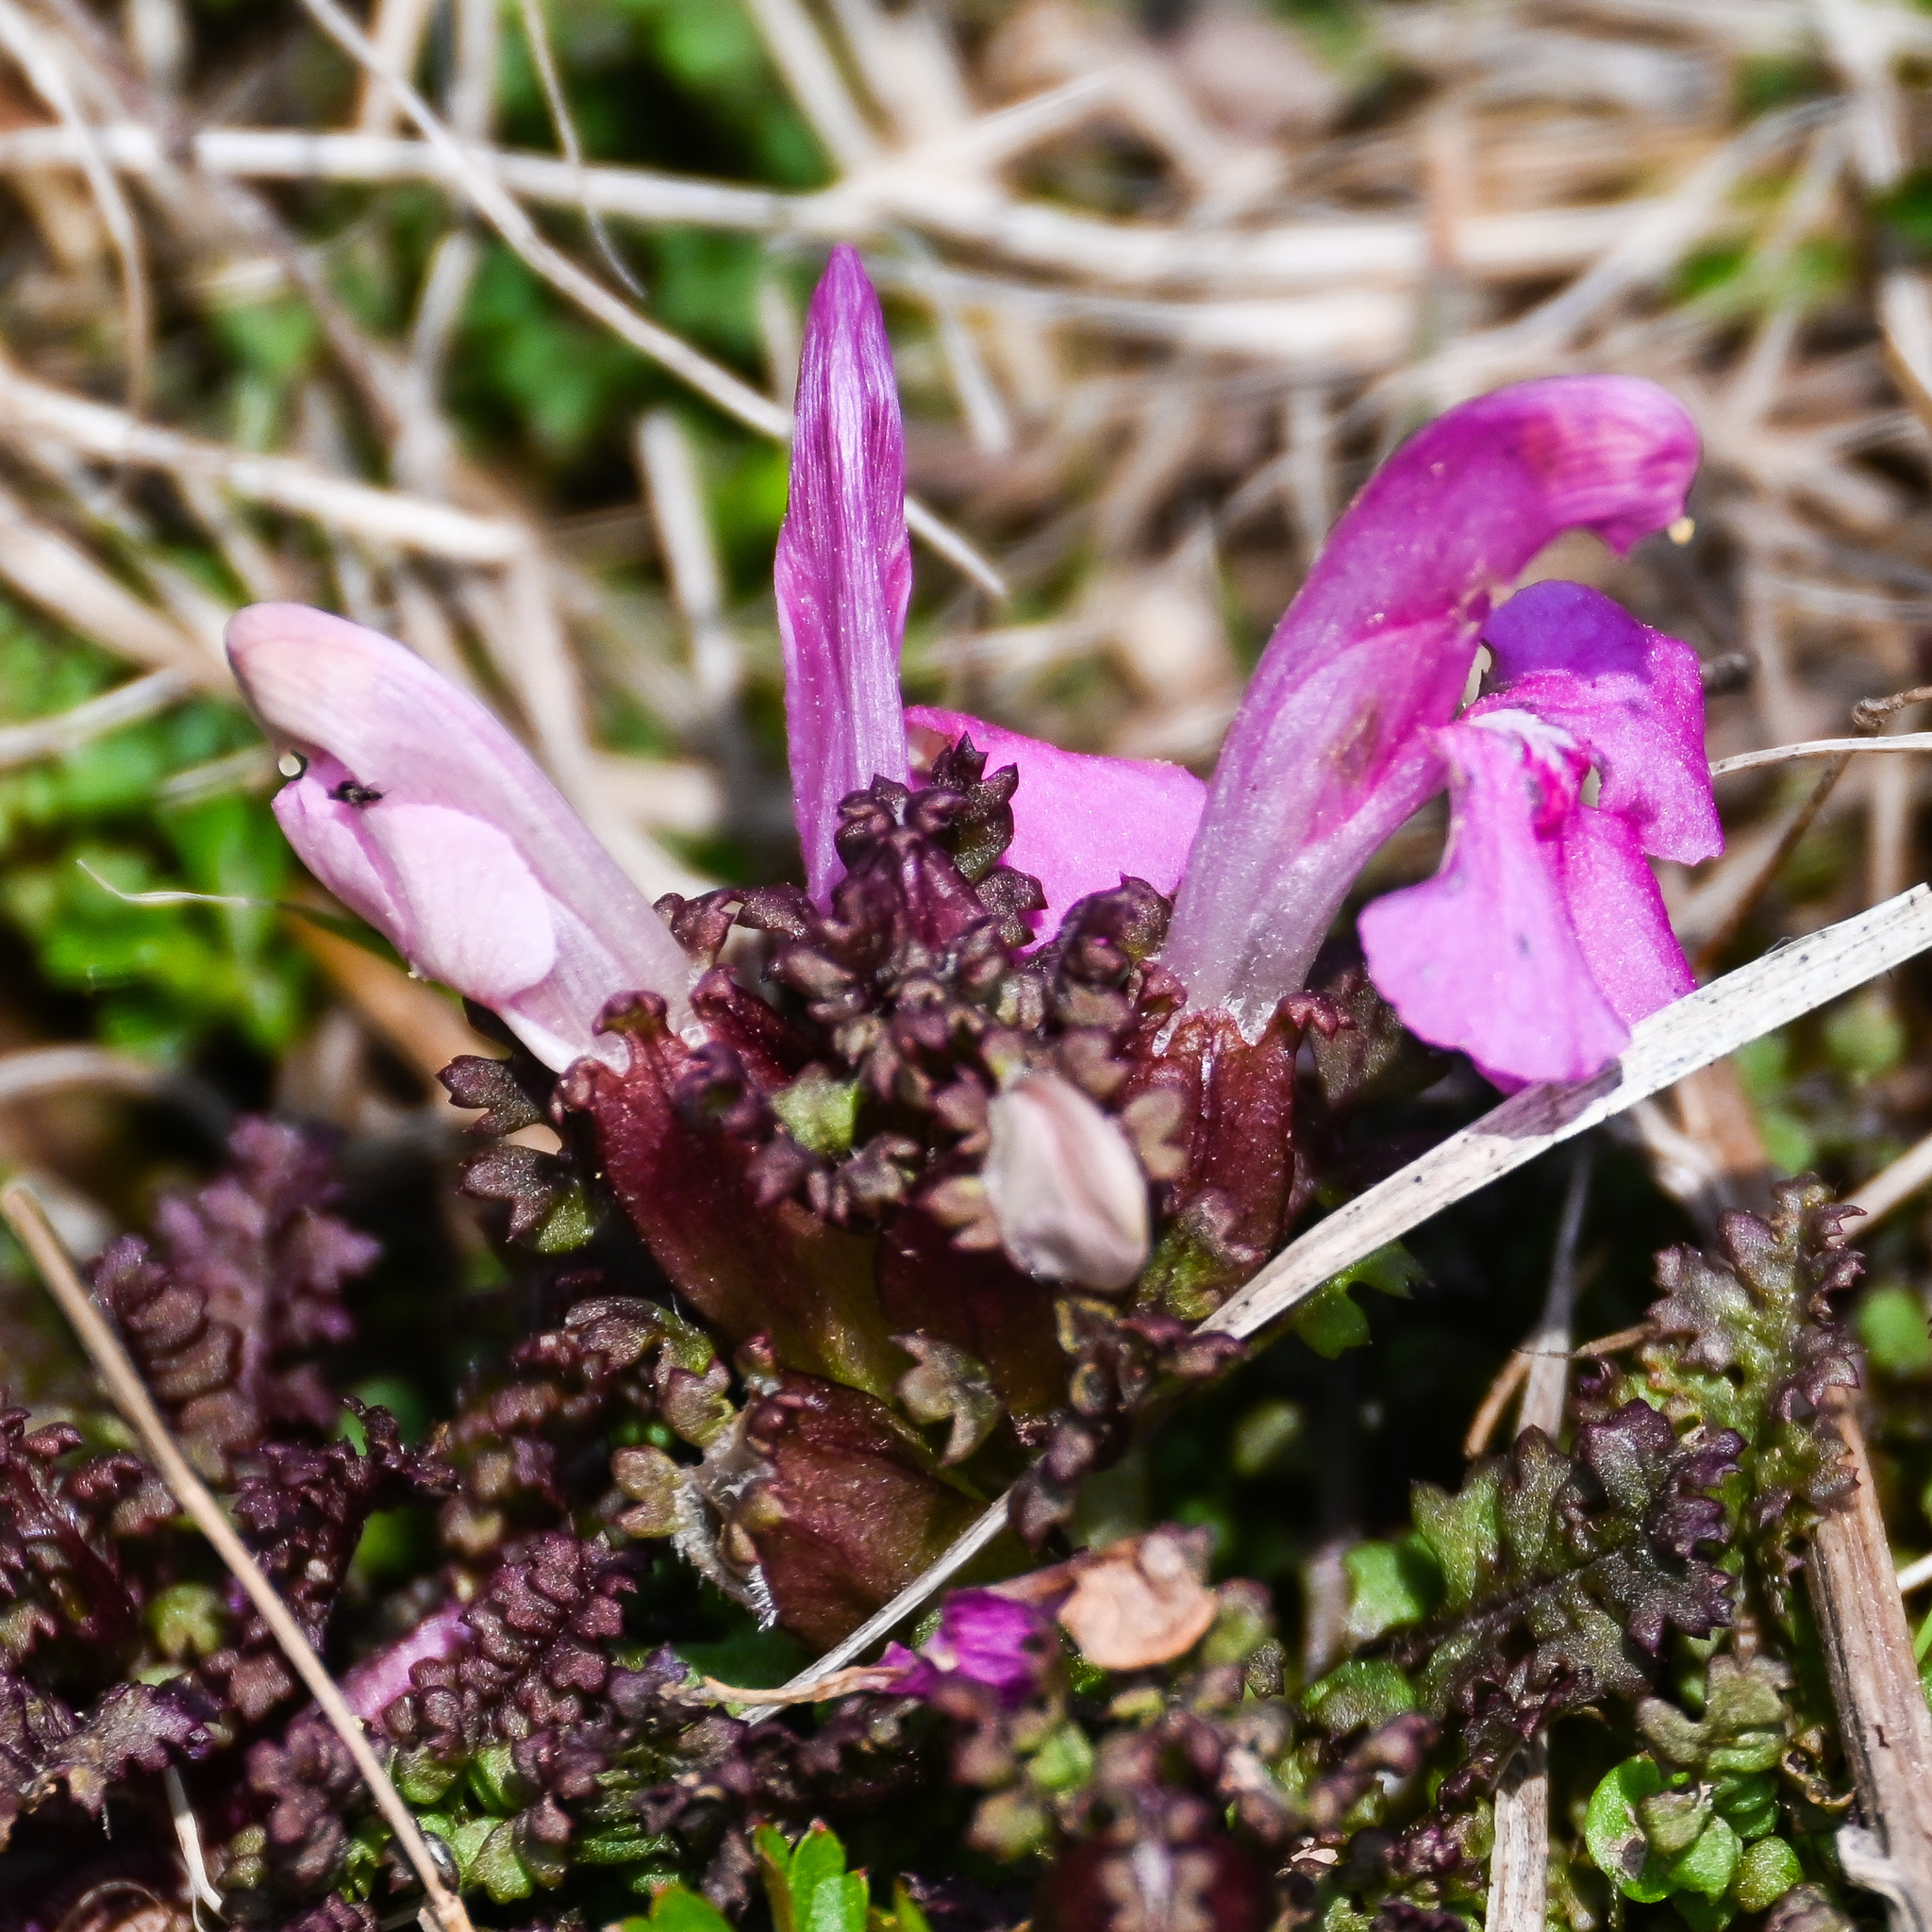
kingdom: Plantae
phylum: Tracheophyta
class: Magnoliopsida
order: Lamiales
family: Orobanchaceae
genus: Pedicularis
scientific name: Pedicularis sylvatica
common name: Lousewort
